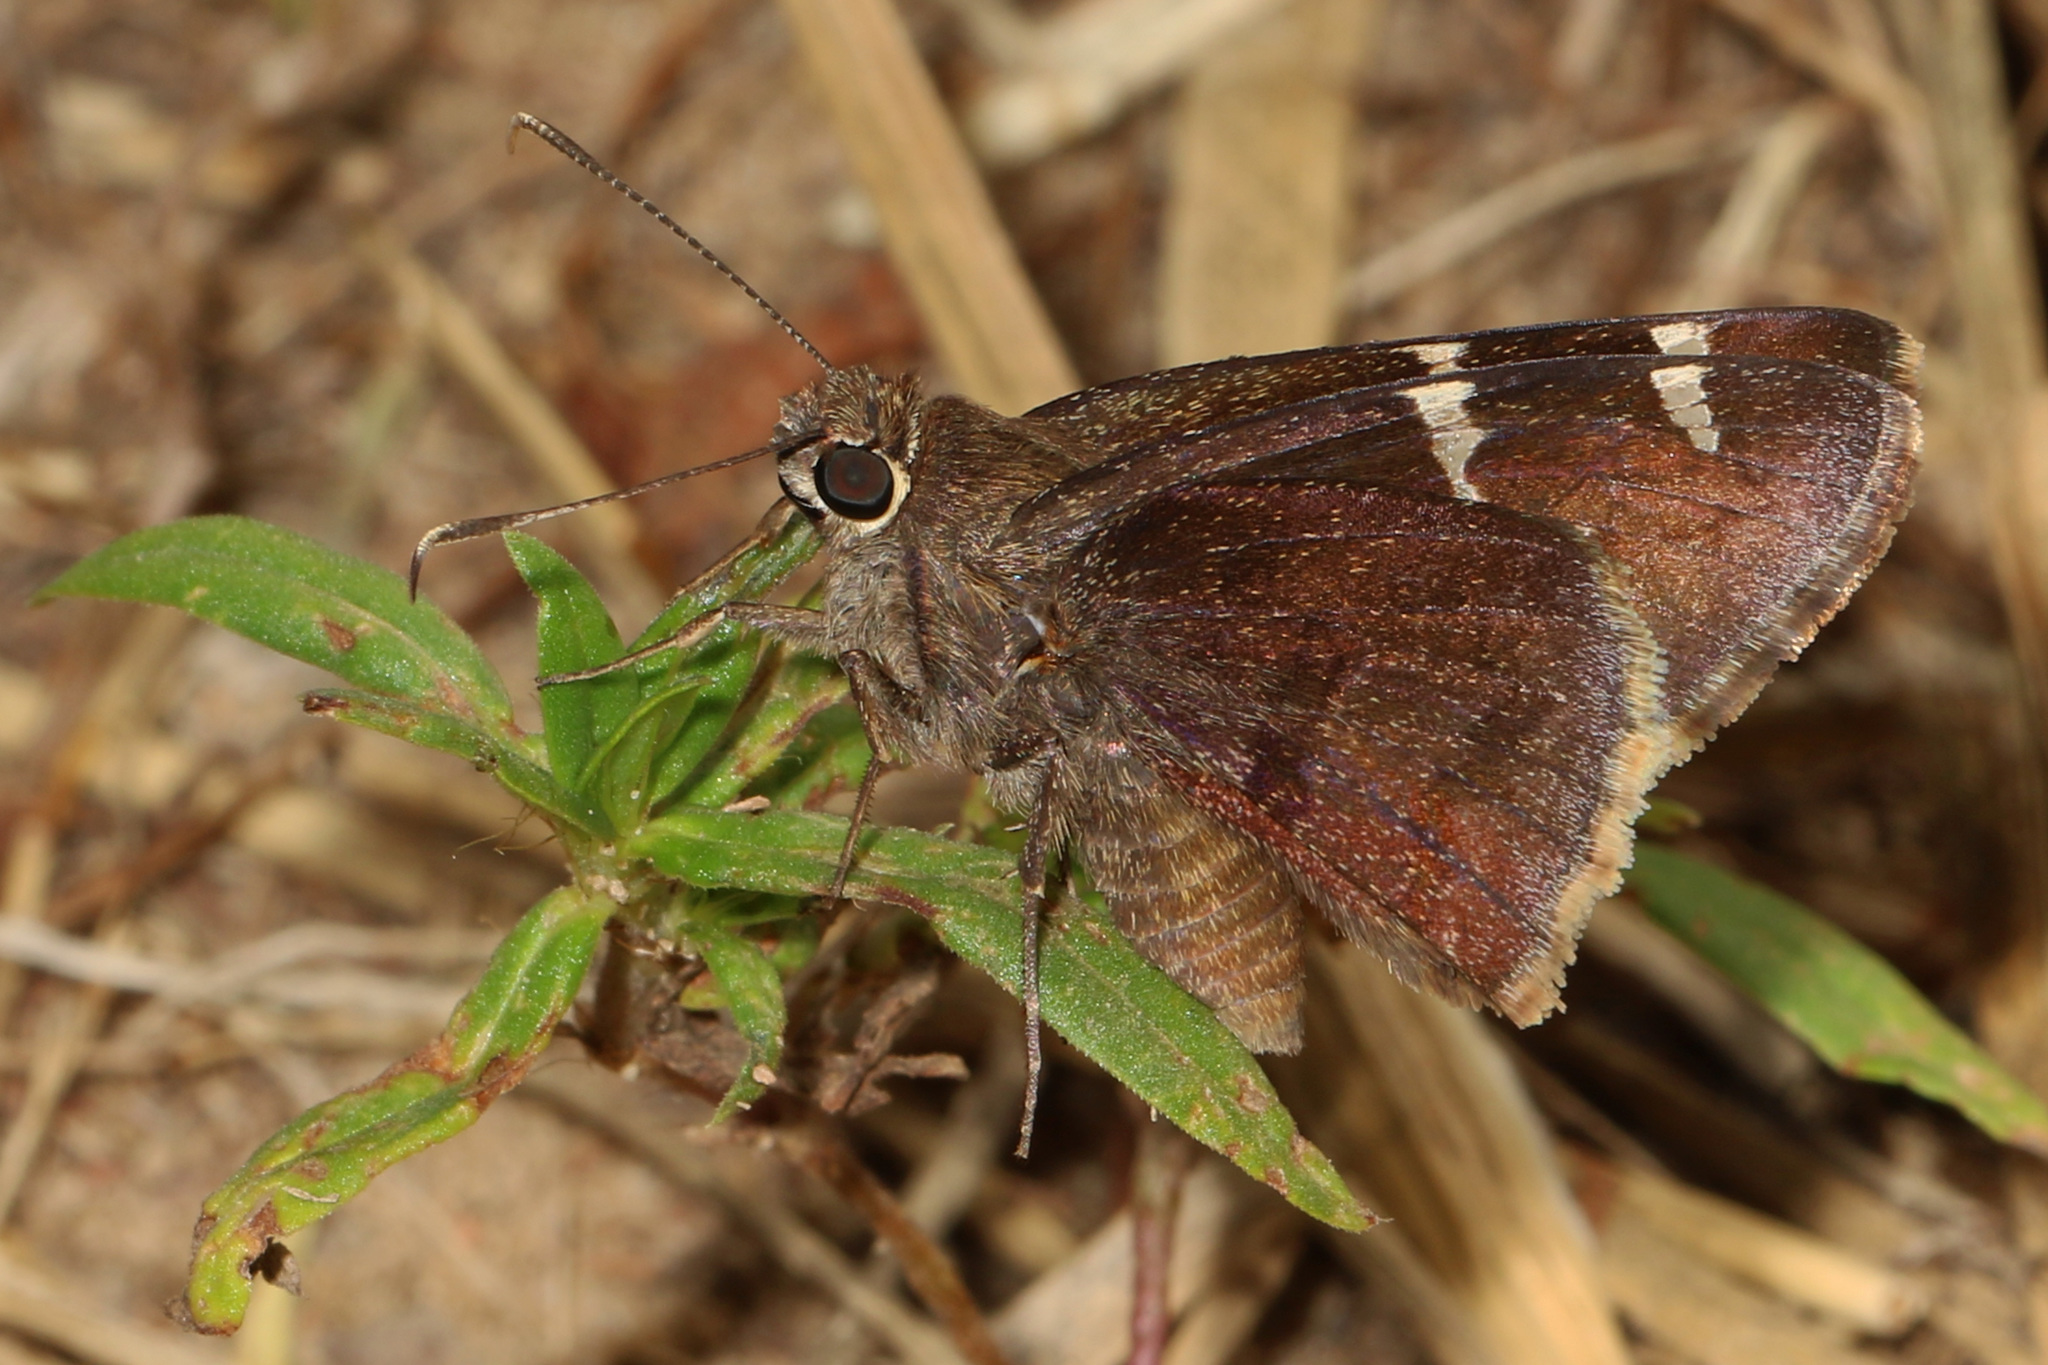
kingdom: Animalia
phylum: Arthropoda
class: Insecta
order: Lepidoptera
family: Hesperiidae
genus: Thorybes
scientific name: Thorybes daunus
